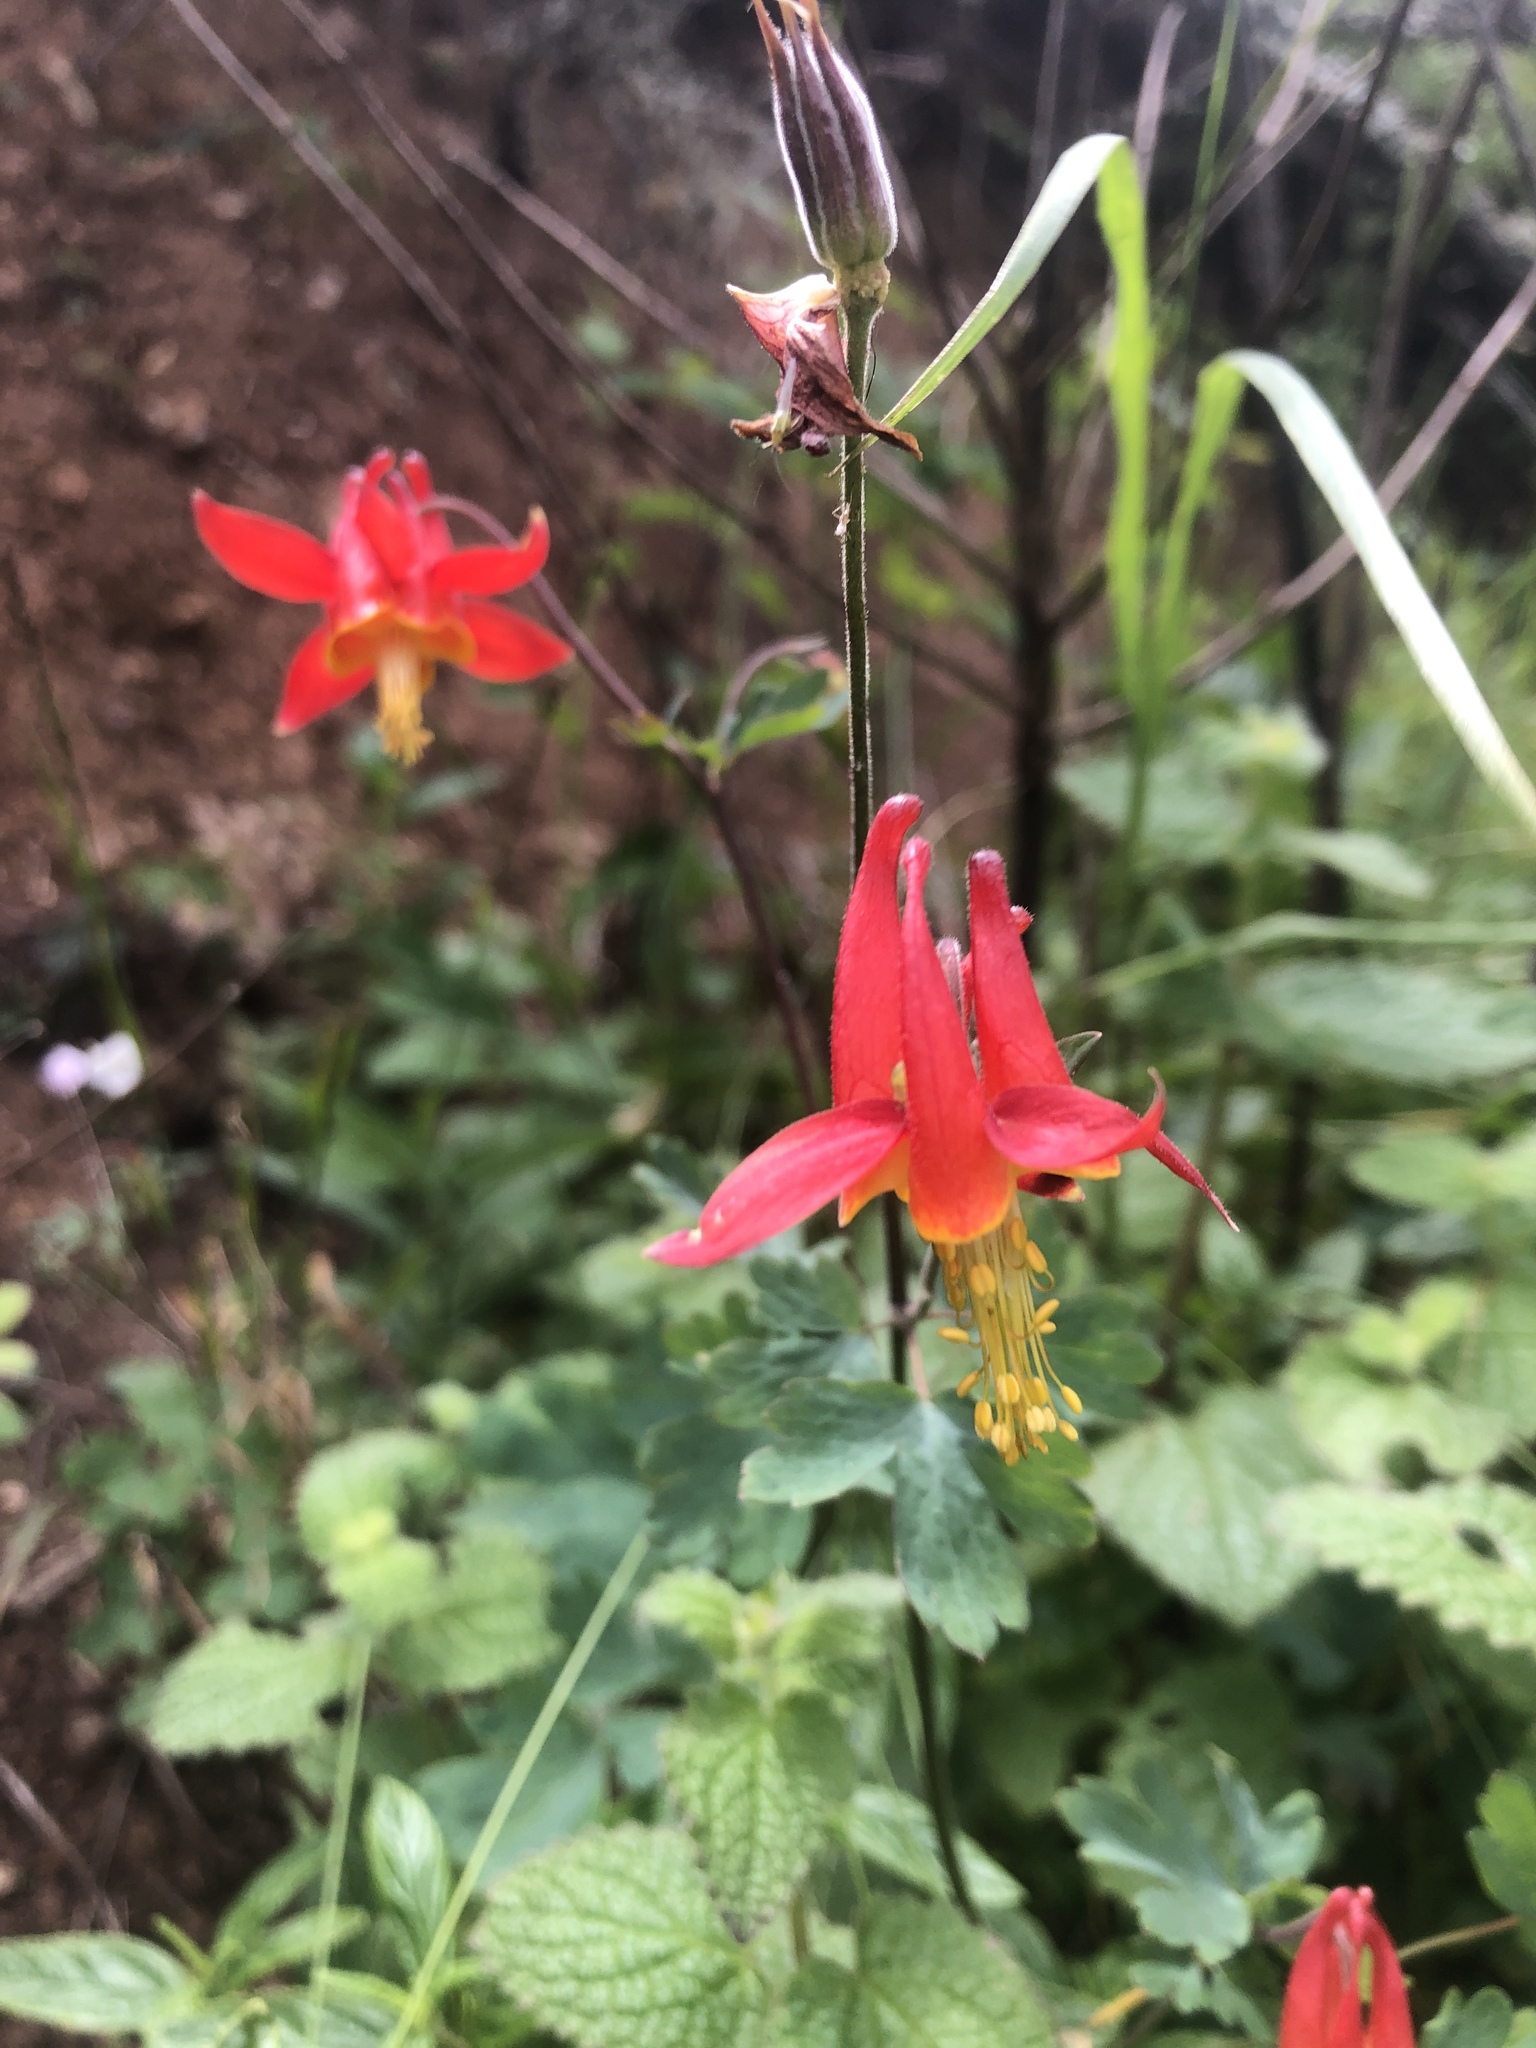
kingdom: Plantae
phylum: Tracheophyta
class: Magnoliopsida
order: Ranunculales
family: Ranunculaceae
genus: Aquilegia
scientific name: Aquilegia formosa
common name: Sitka columbine
